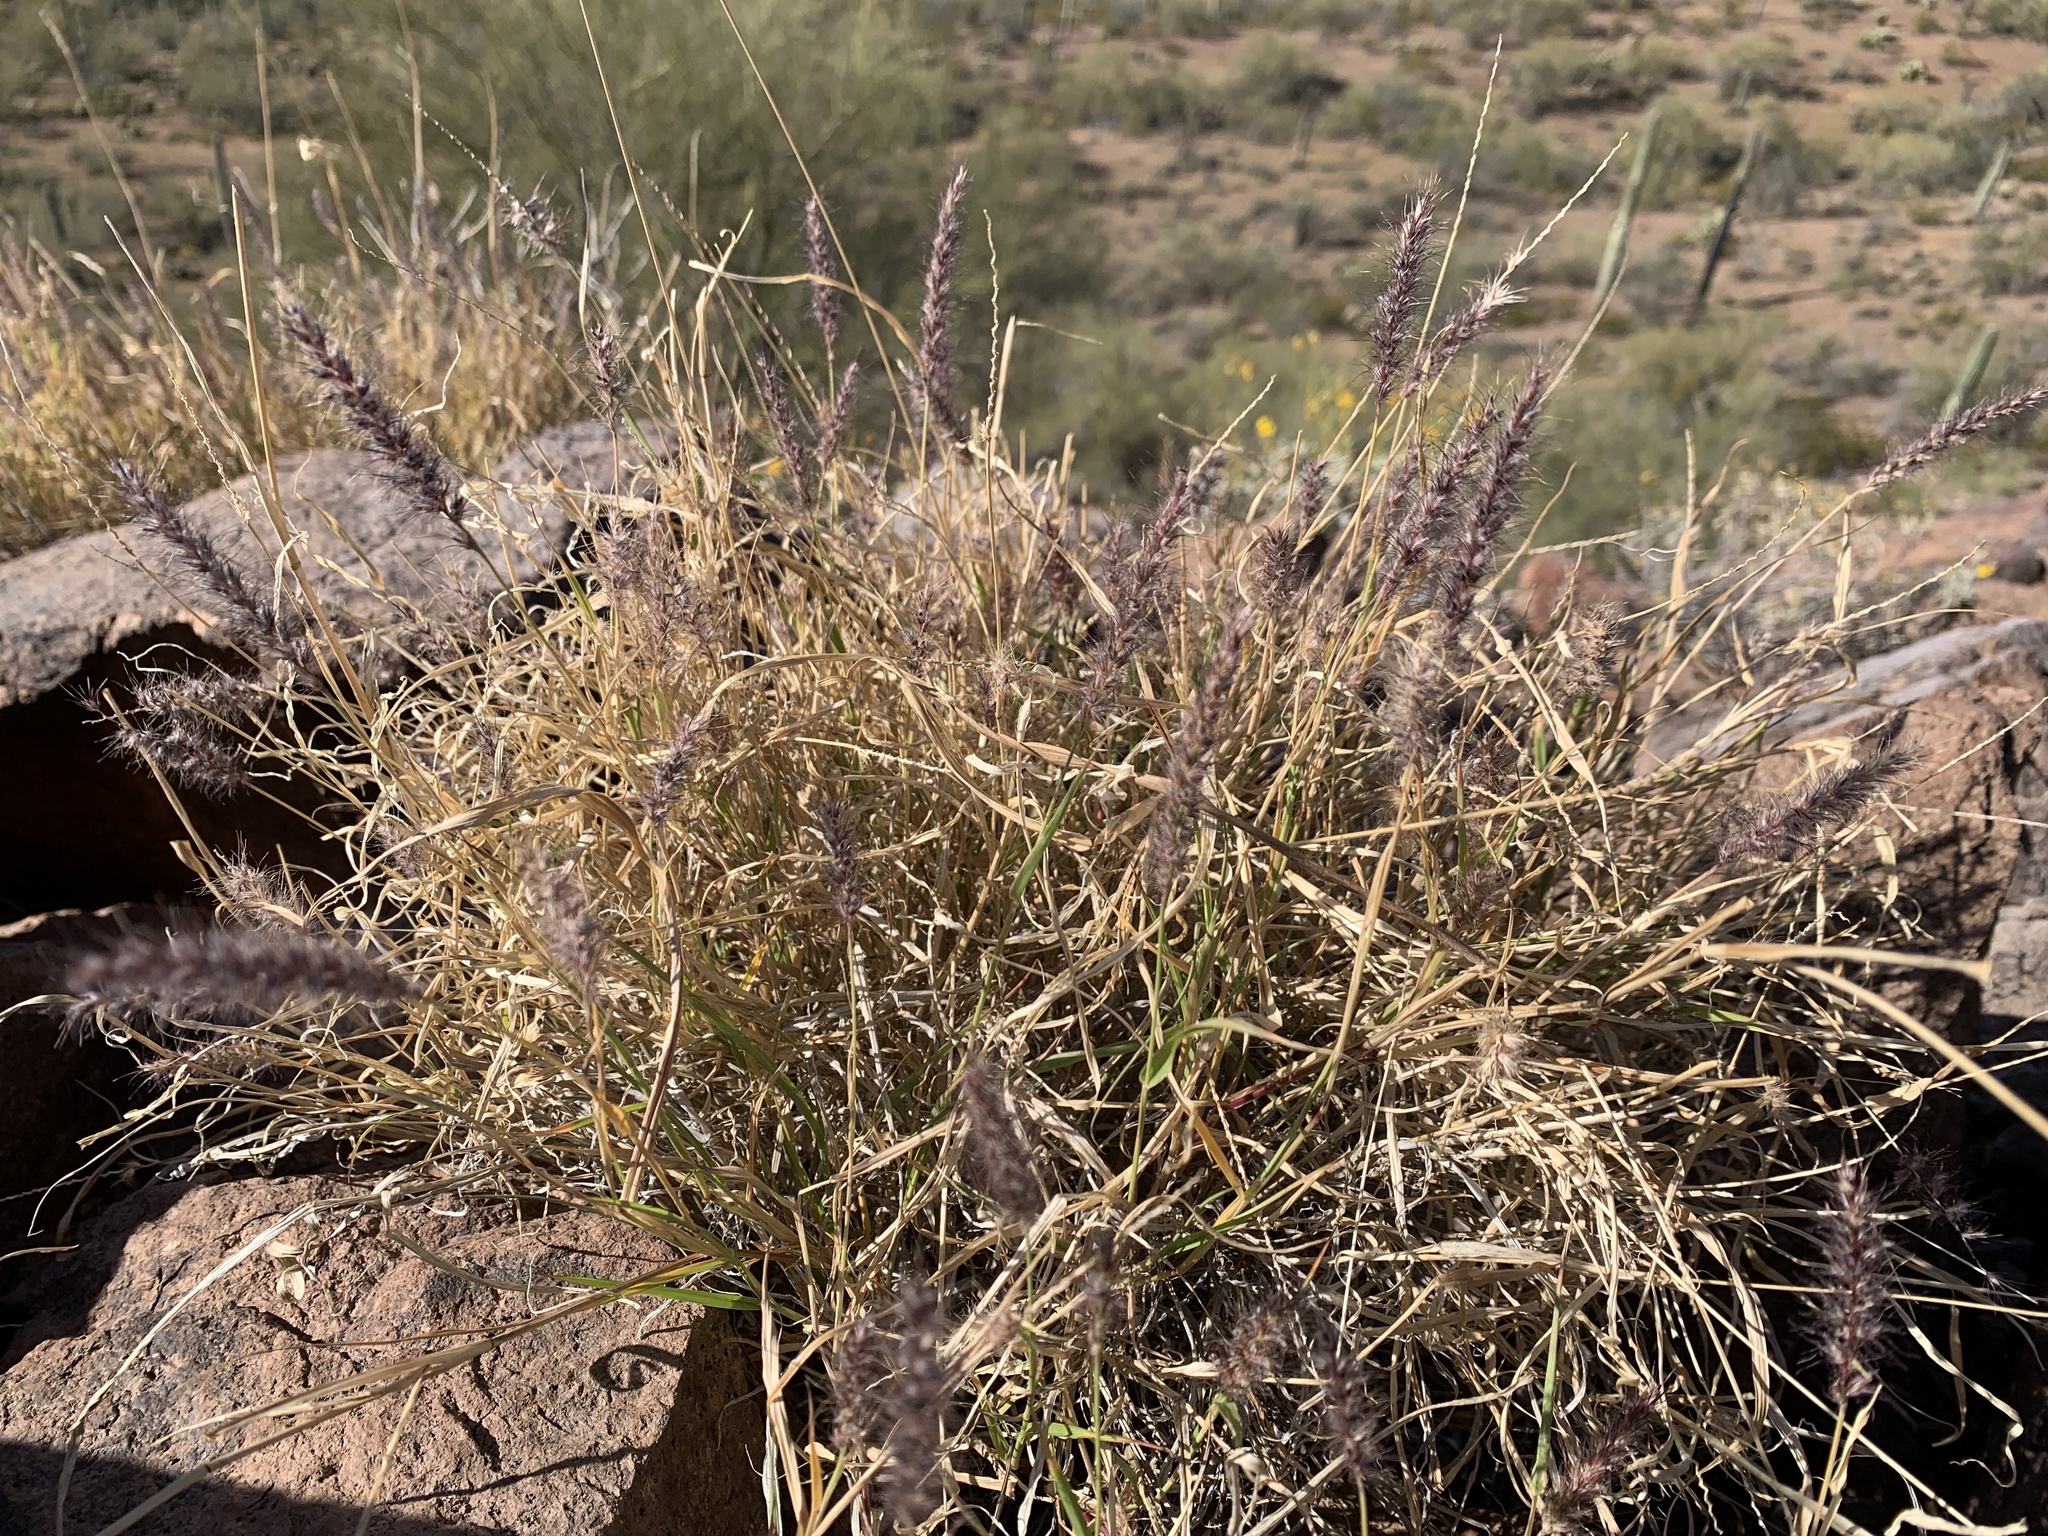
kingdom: Plantae
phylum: Tracheophyta
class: Liliopsida
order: Poales
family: Poaceae
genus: Cenchrus
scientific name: Cenchrus ciliaris
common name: Buffelgrass
